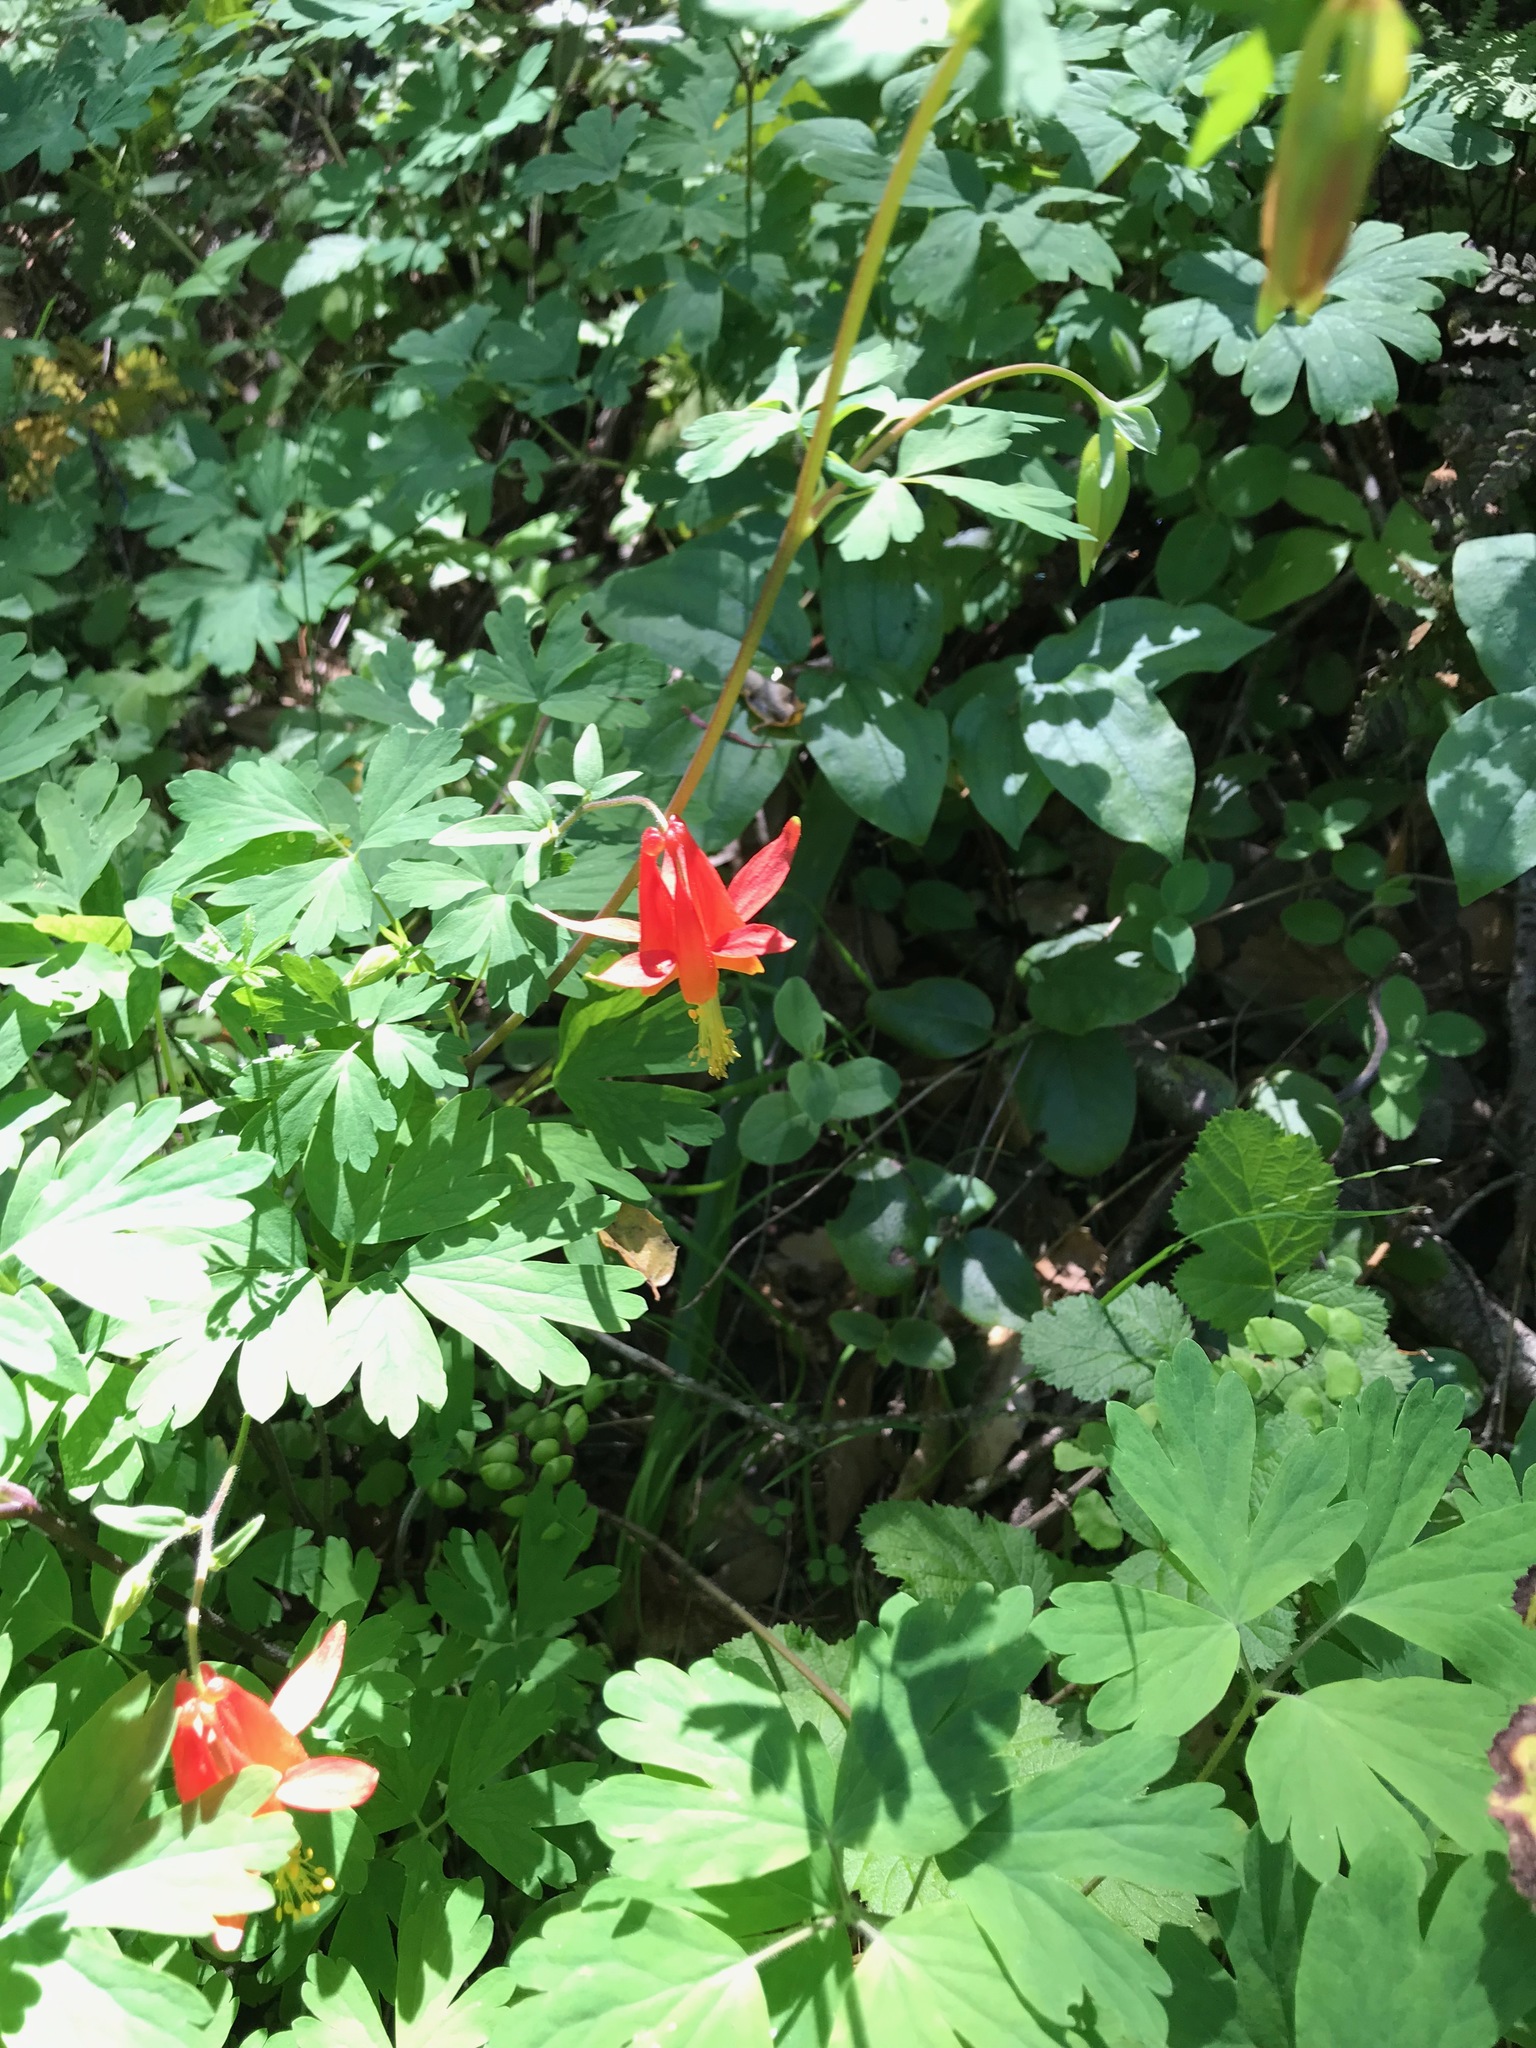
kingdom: Plantae
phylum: Tracheophyta
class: Magnoliopsida
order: Ranunculales
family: Ranunculaceae
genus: Aquilegia
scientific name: Aquilegia formosa
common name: Sitka columbine
